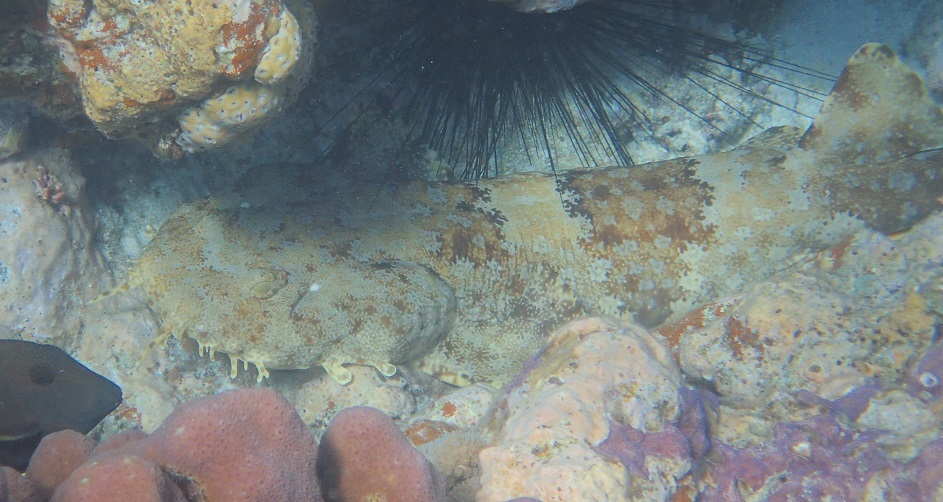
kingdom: Animalia
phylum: Chordata
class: Elasmobranchii
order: Orectolobiformes
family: Orectolobidae
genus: Orectolobus
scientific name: Orectolobus ornatus
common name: Ornate wobbegong
